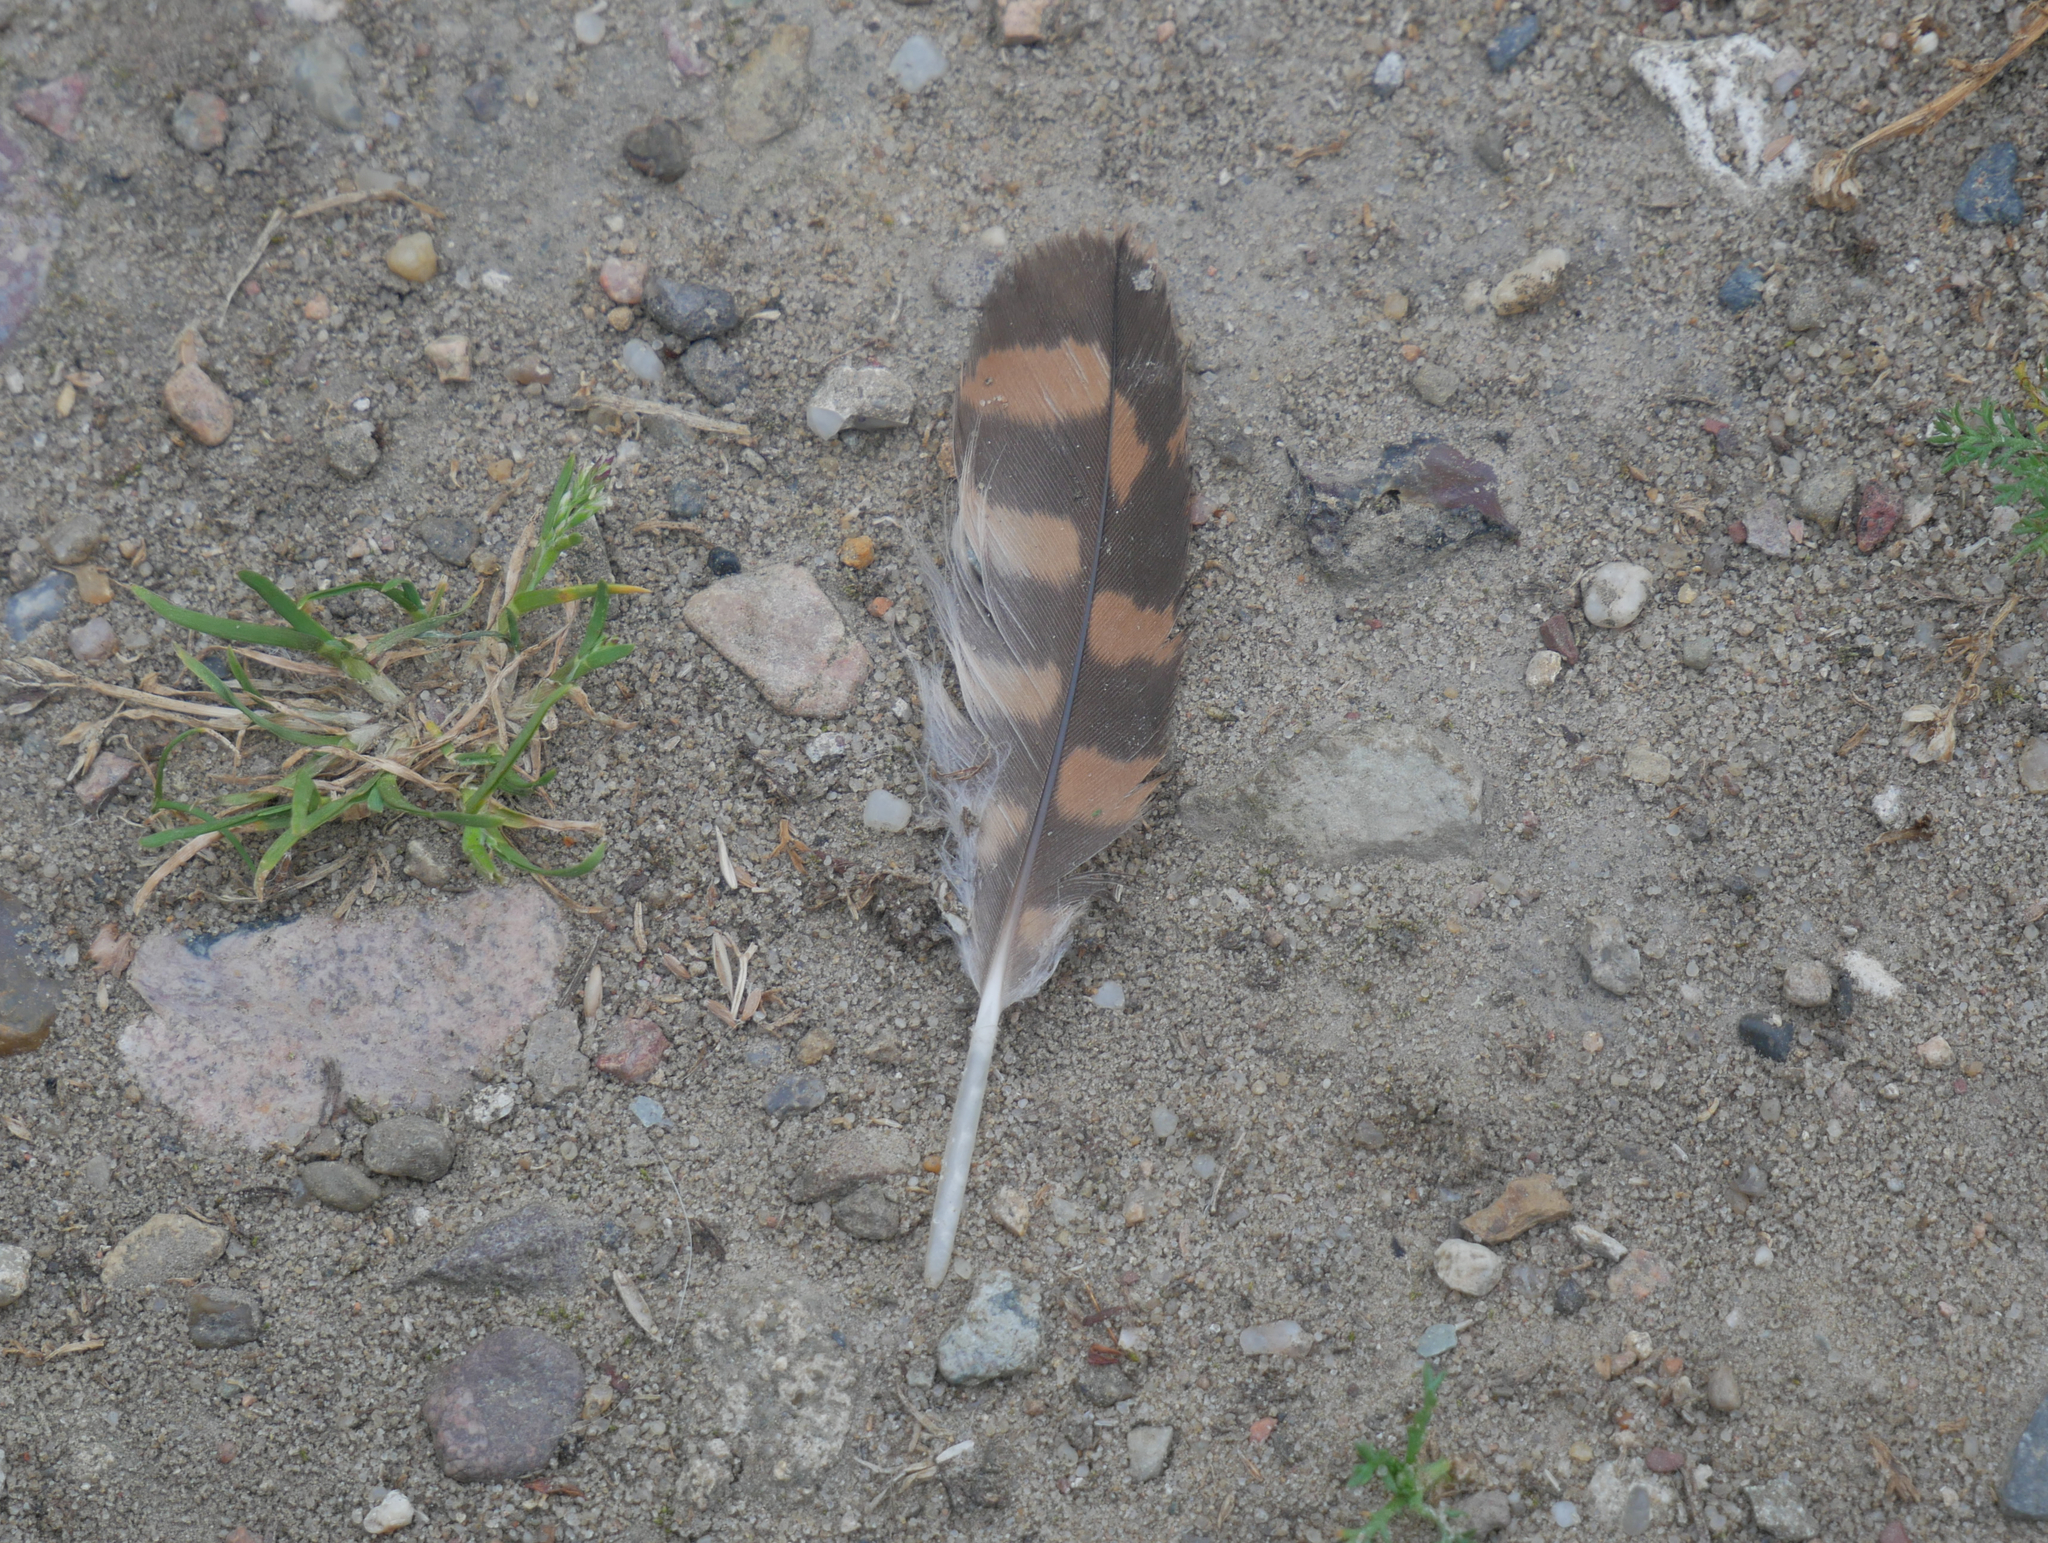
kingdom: Animalia
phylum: Chordata
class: Aves
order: Falconiformes
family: Falconidae
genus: Falco
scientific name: Falco tinnunculus
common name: Common kestrel
